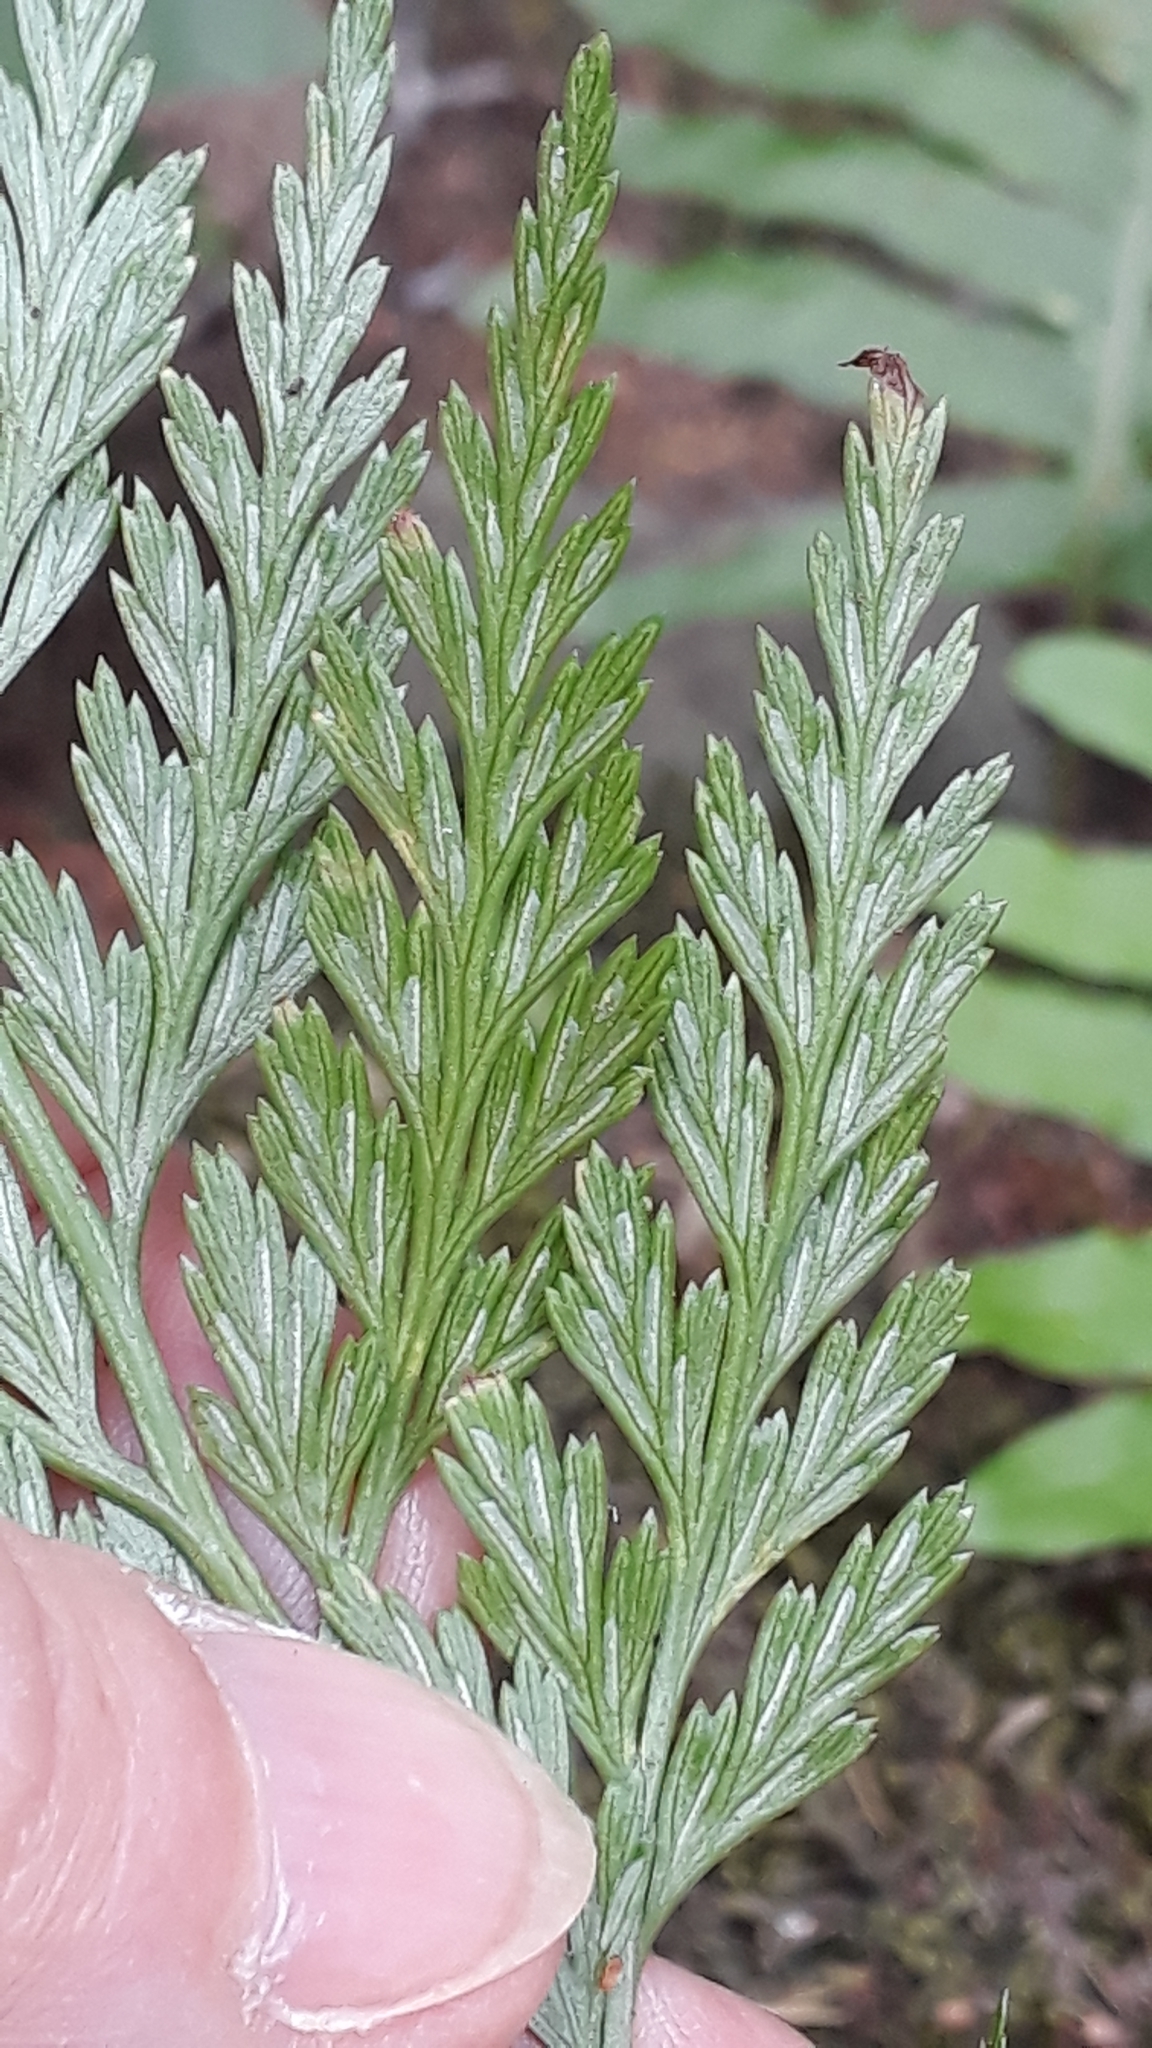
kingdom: Plantae
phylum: Tracheophyta
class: Polypodiopsida
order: Polypodiales
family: Aspleniaceae
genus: Asplenium
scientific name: Asplenium onopteris
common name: Irish spleenwort
